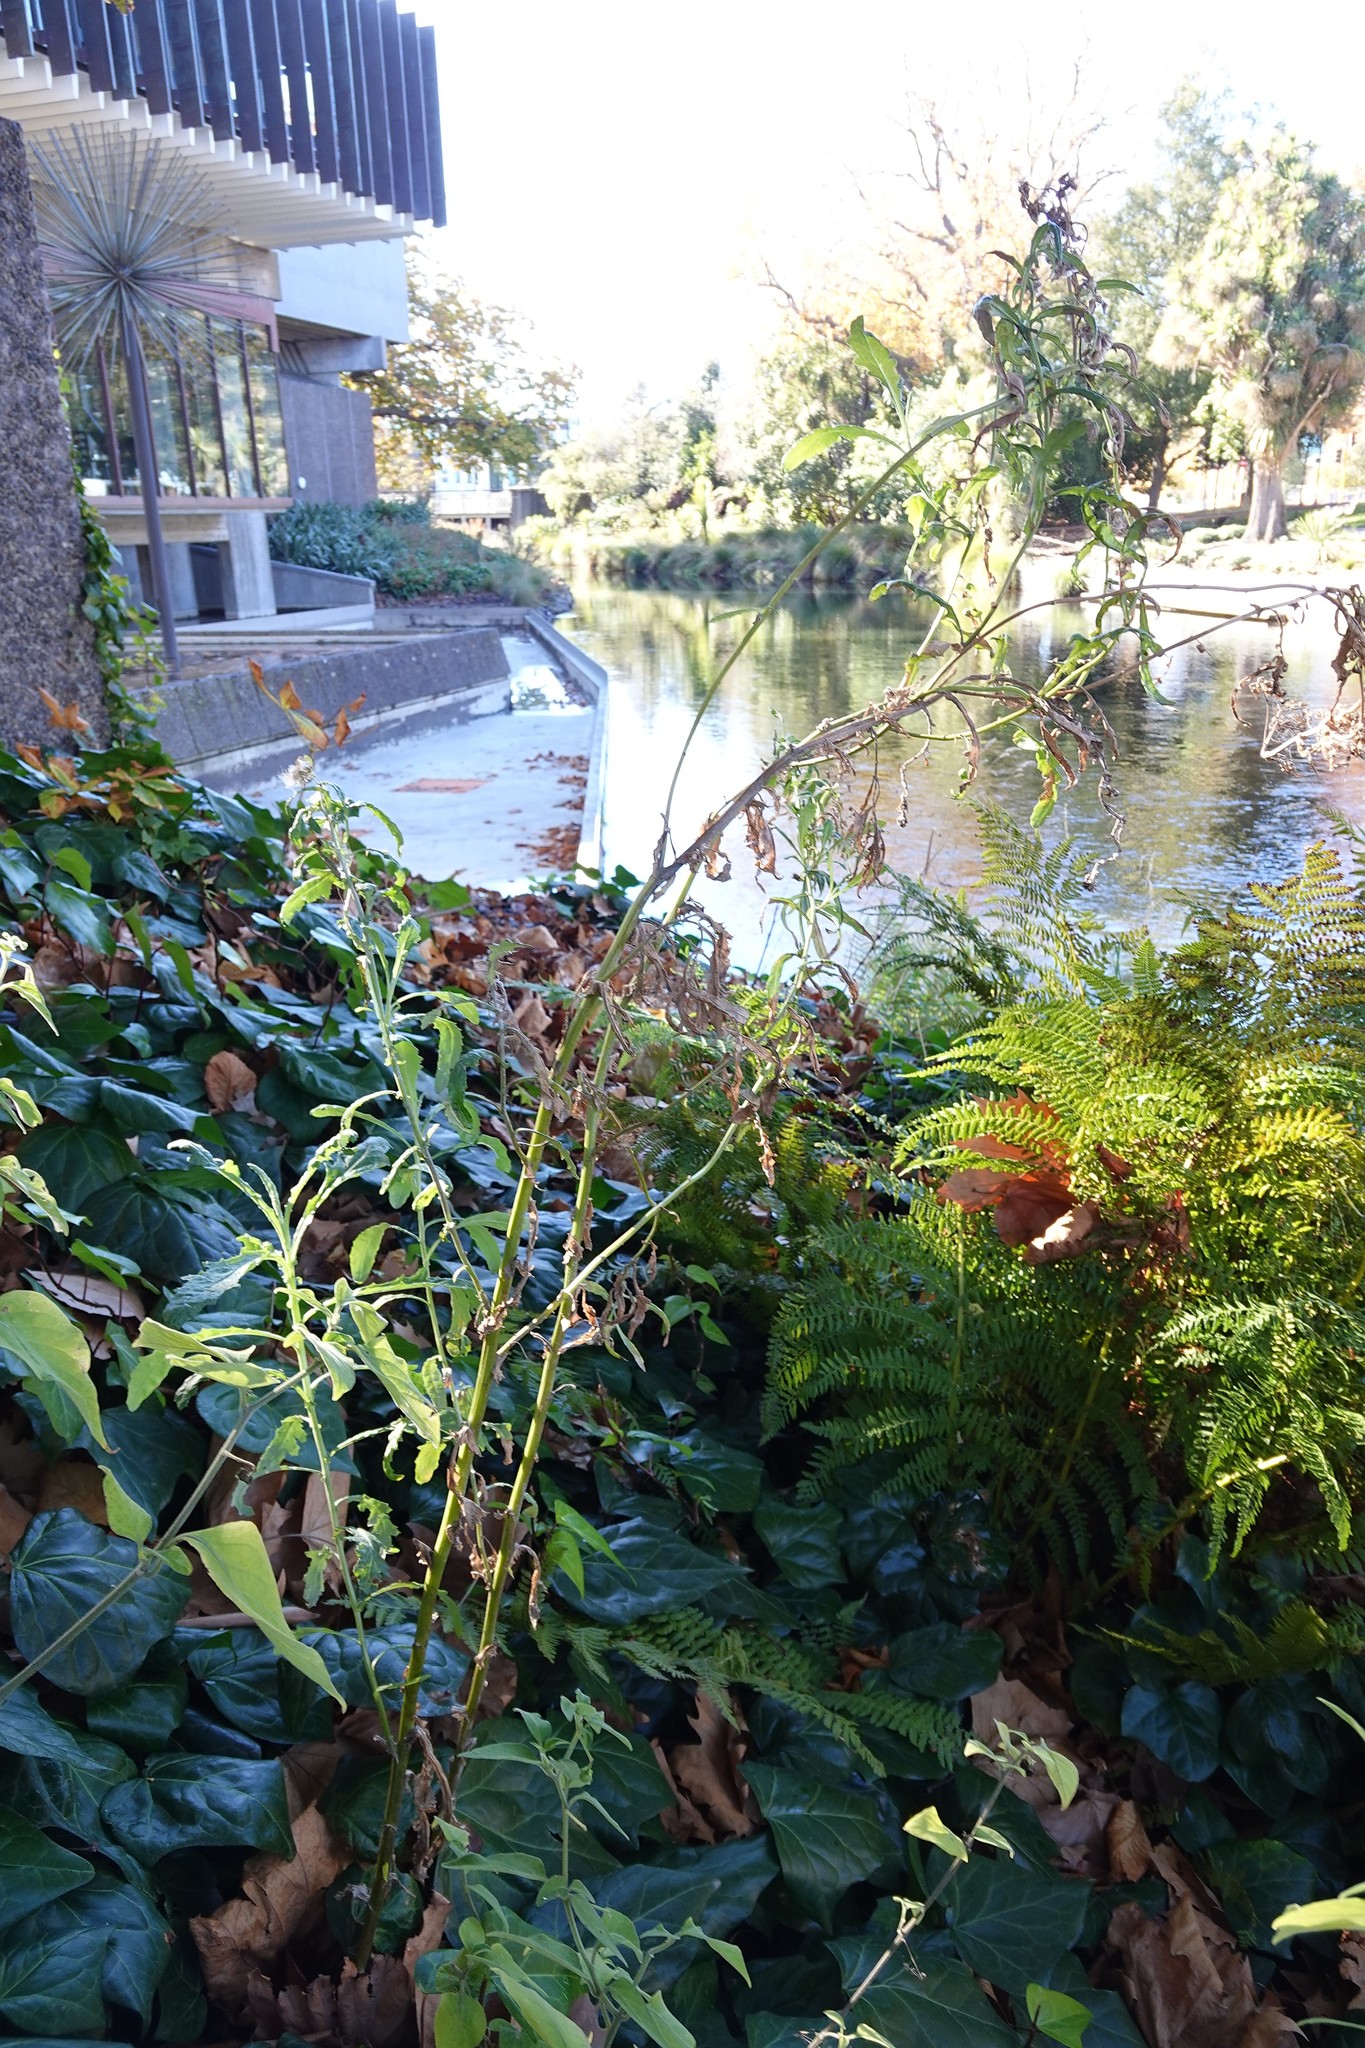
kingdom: Plantae
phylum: Tracheophyta
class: Magnoliopsida
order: Asterales
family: Asteraceae
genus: Senecio
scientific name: Senecio glomeratus
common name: Cutleaf burnweed
